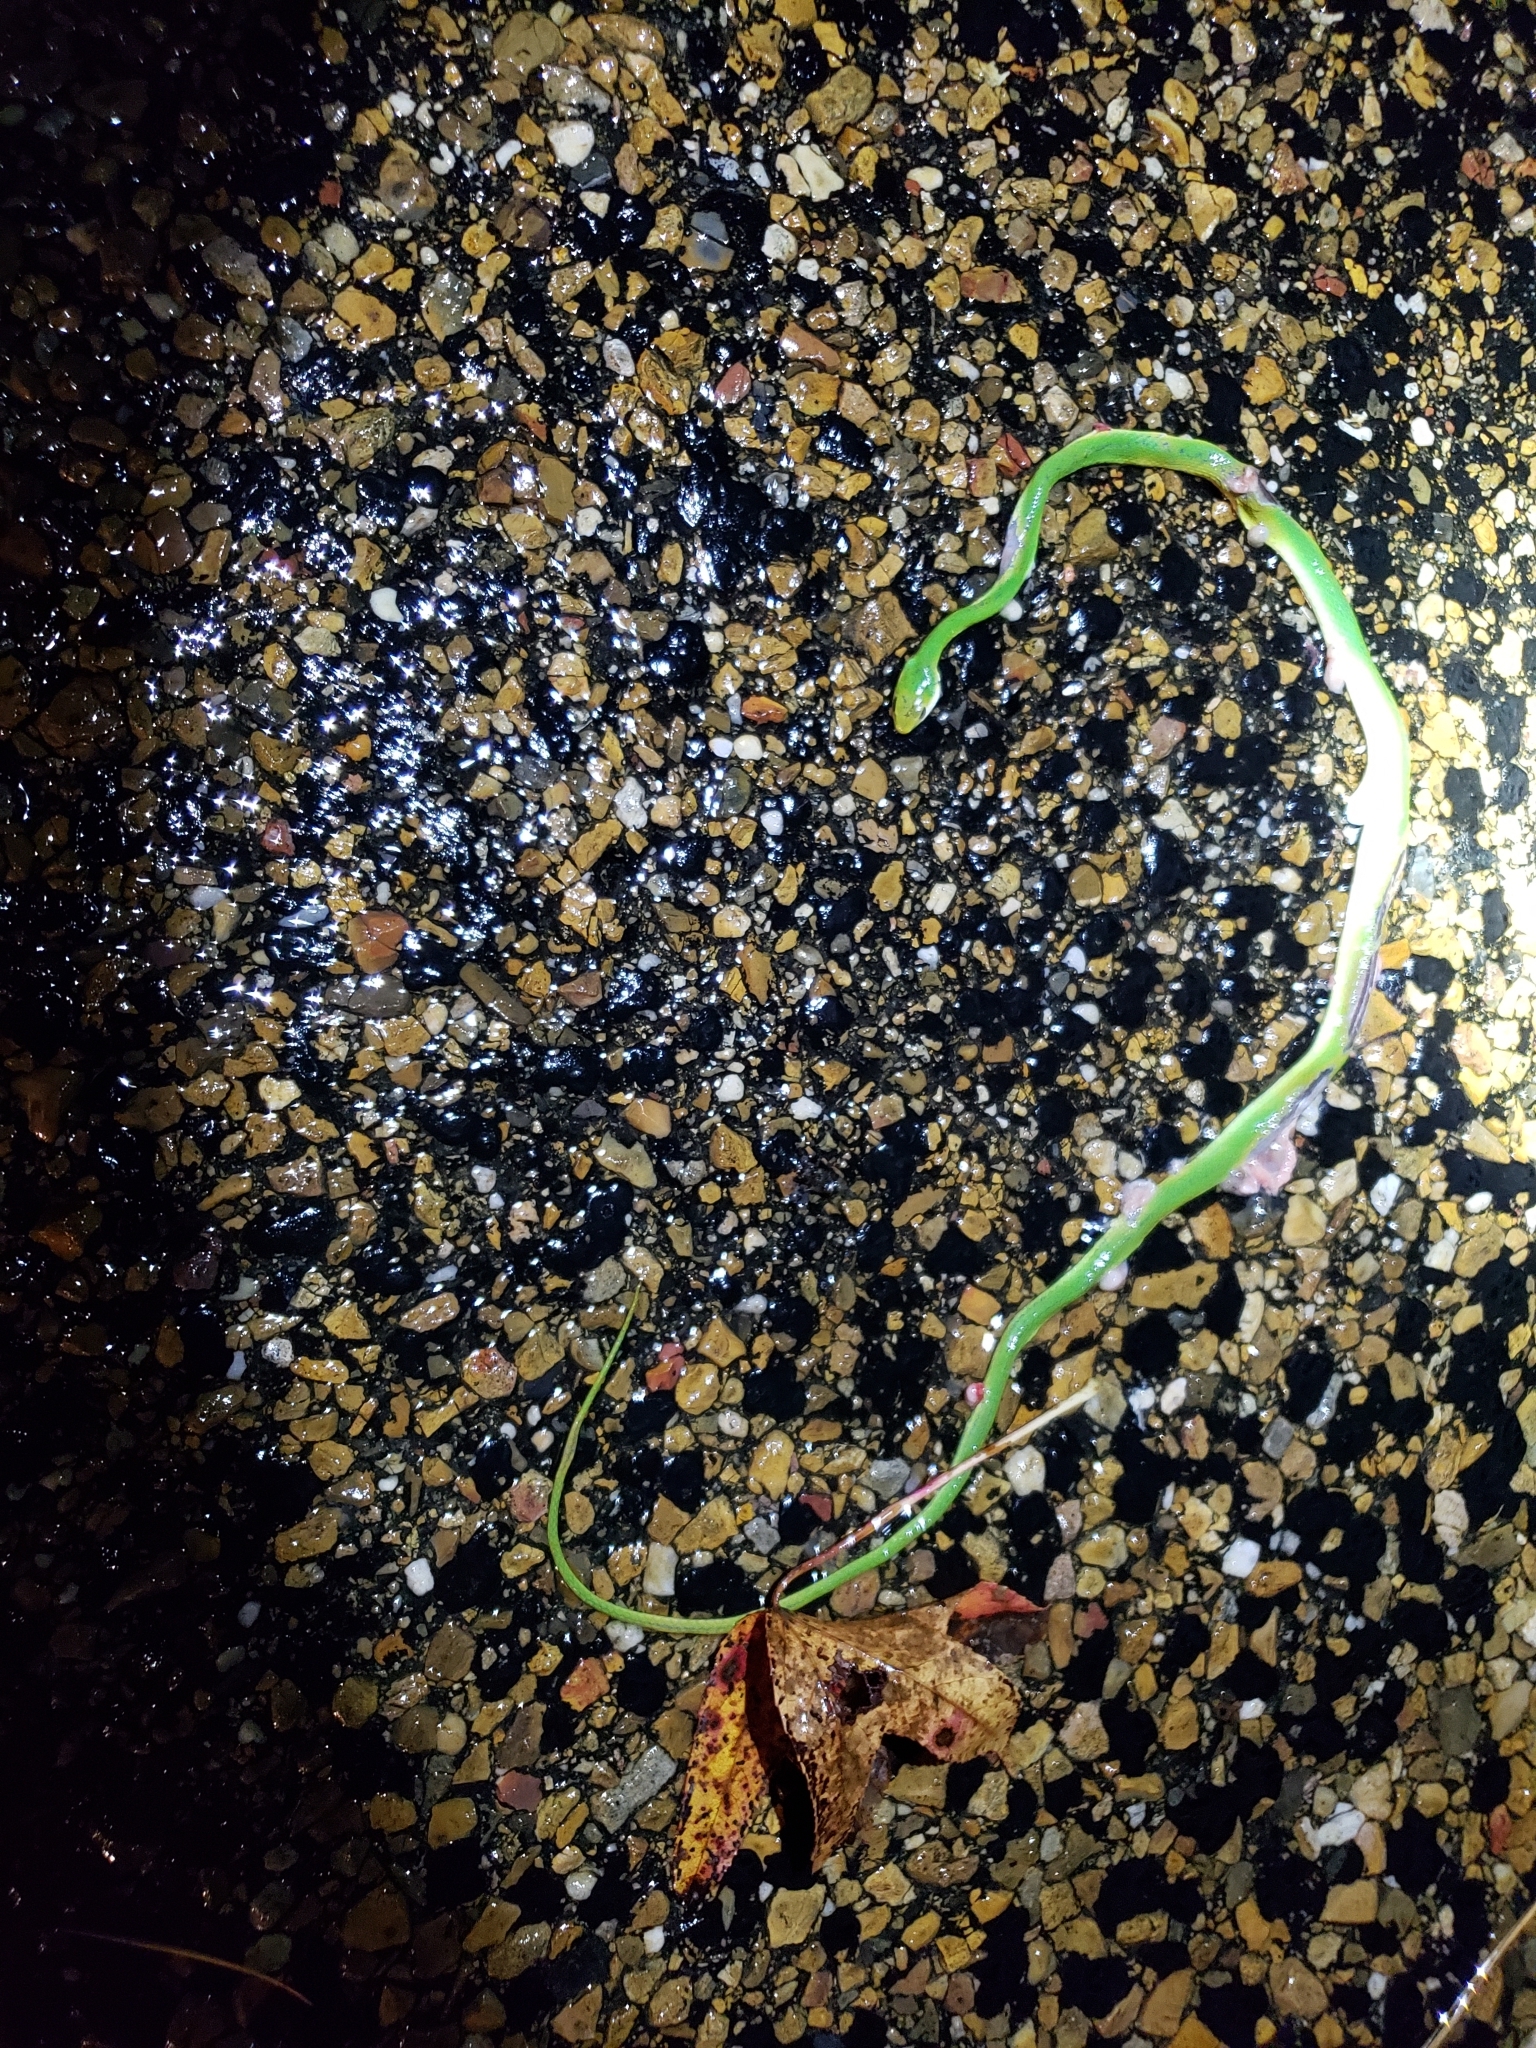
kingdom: Animalia
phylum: Chordata
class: Squamata
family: Colubridae
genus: Opheodrys
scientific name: Opheodrys aestivus
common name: Rough greensnake
